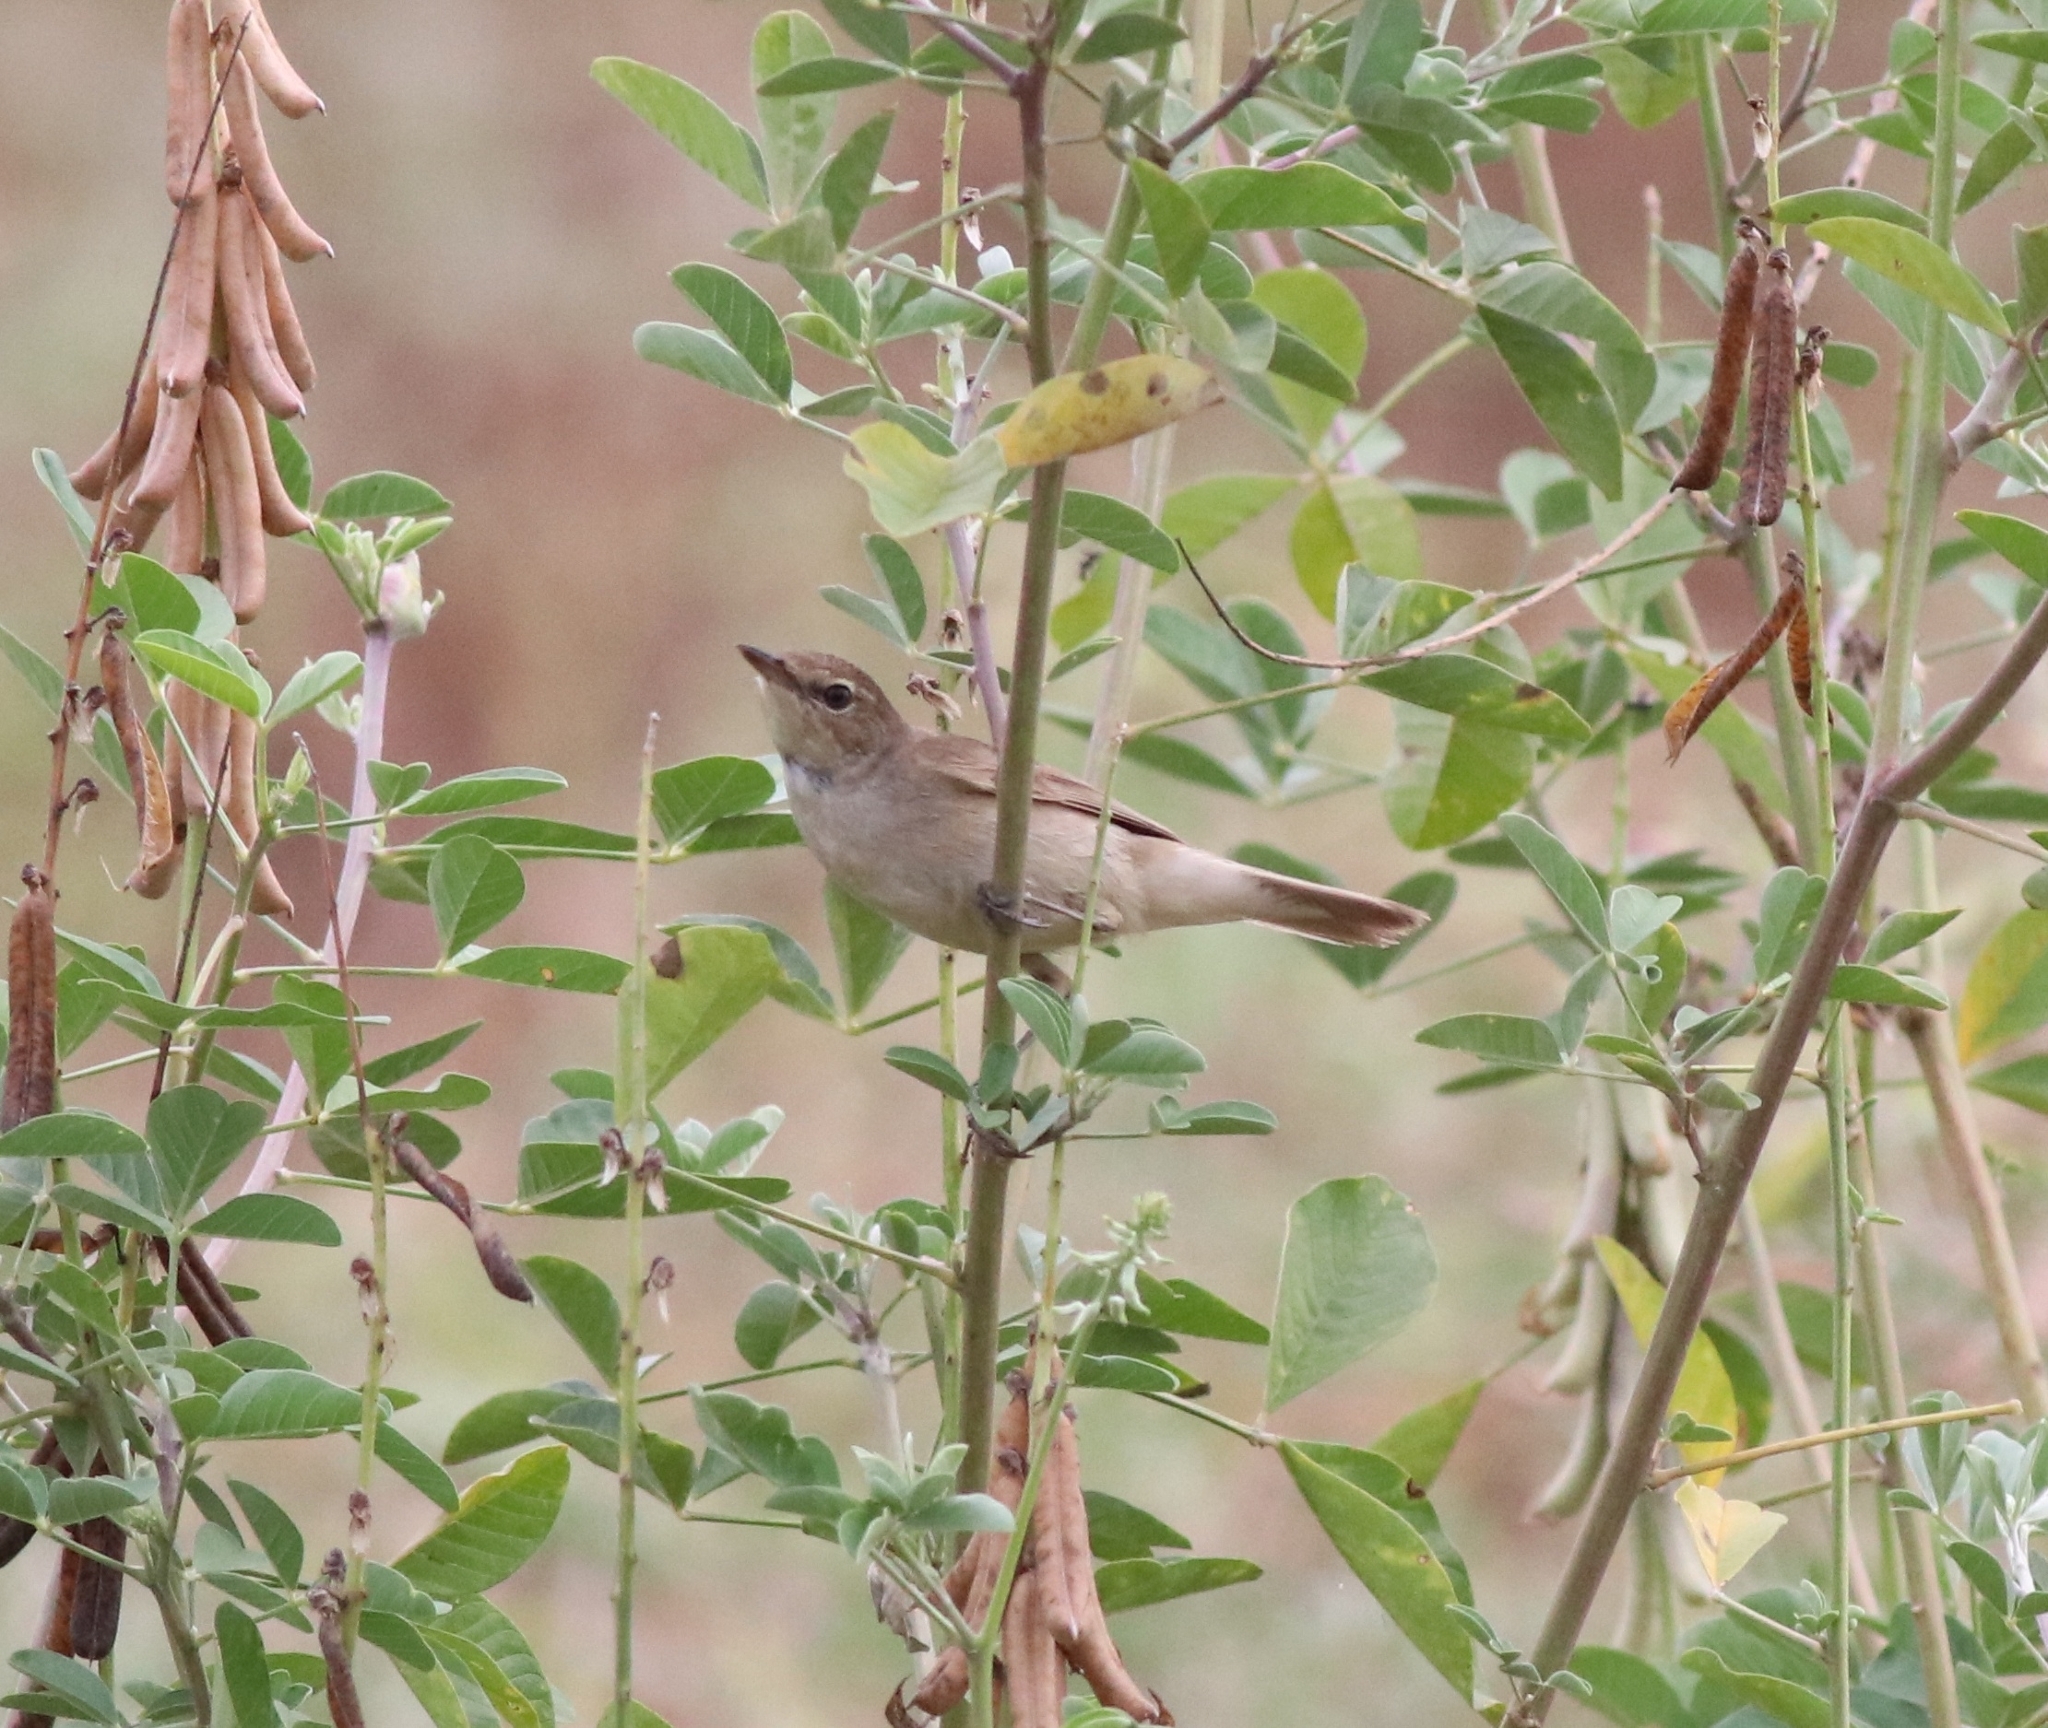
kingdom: Animalia
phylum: Chordata
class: Aves
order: Passeriformes
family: Acrocephalidae
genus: Acrocephalus
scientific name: Acrocephalus dumetorum
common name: Blyth's reed warbler
